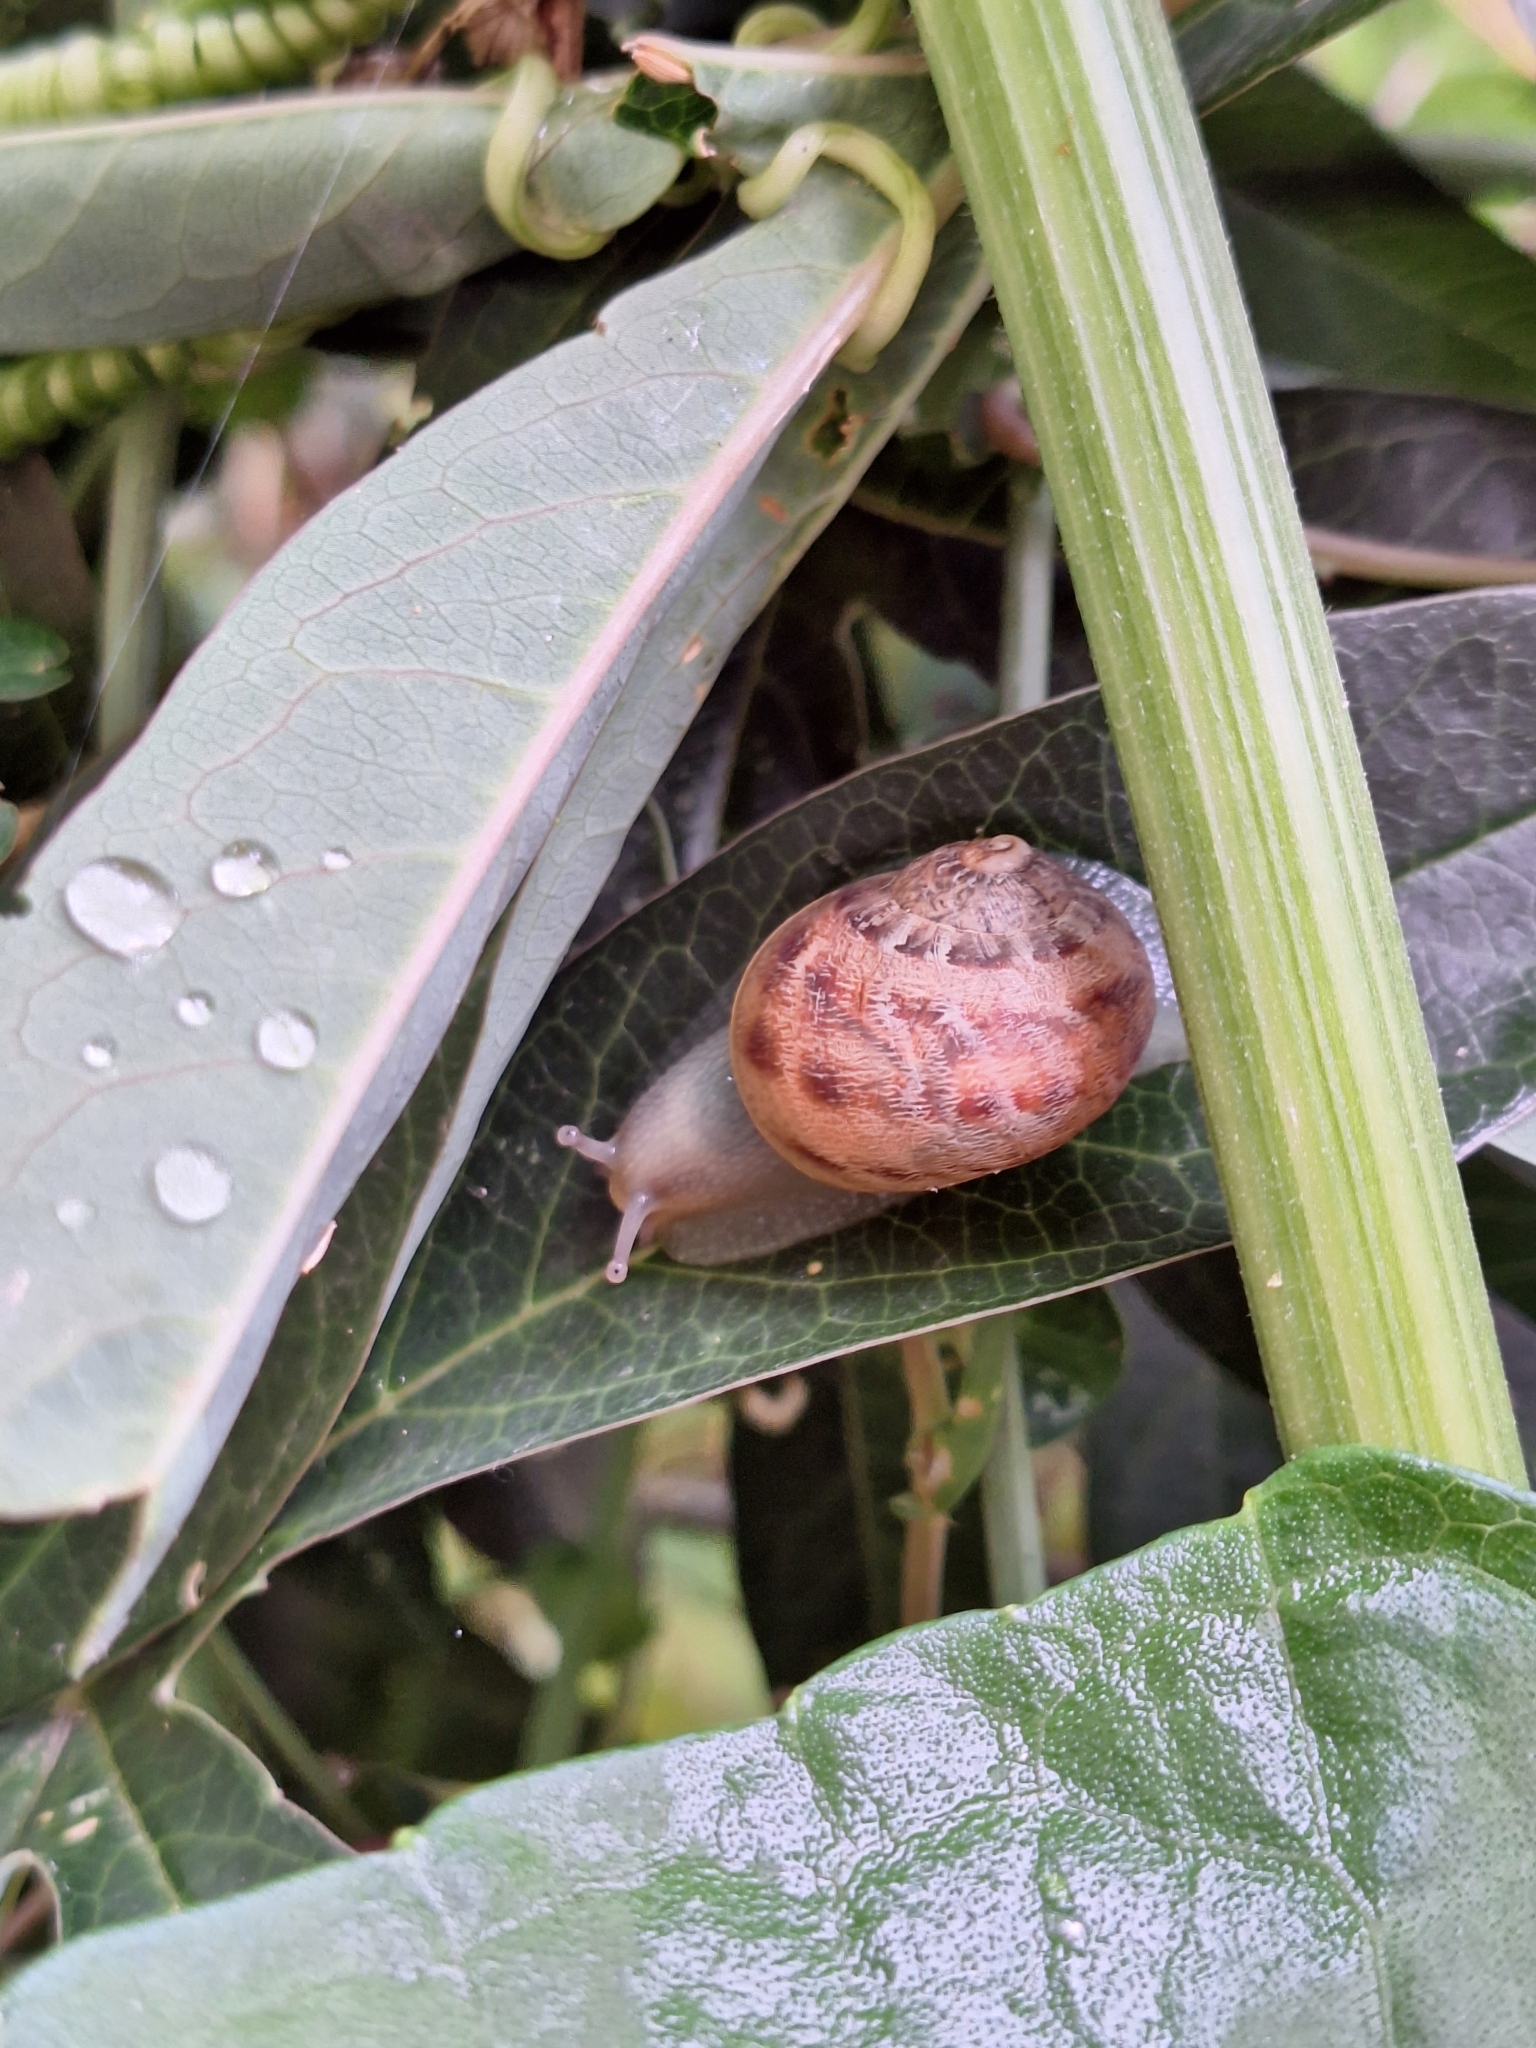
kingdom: Animalia
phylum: Mollusca
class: Gastropoda
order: Stylommatophora
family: Helicidae
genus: Cornu
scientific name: Cornu aspersum
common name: Brown garden snail
